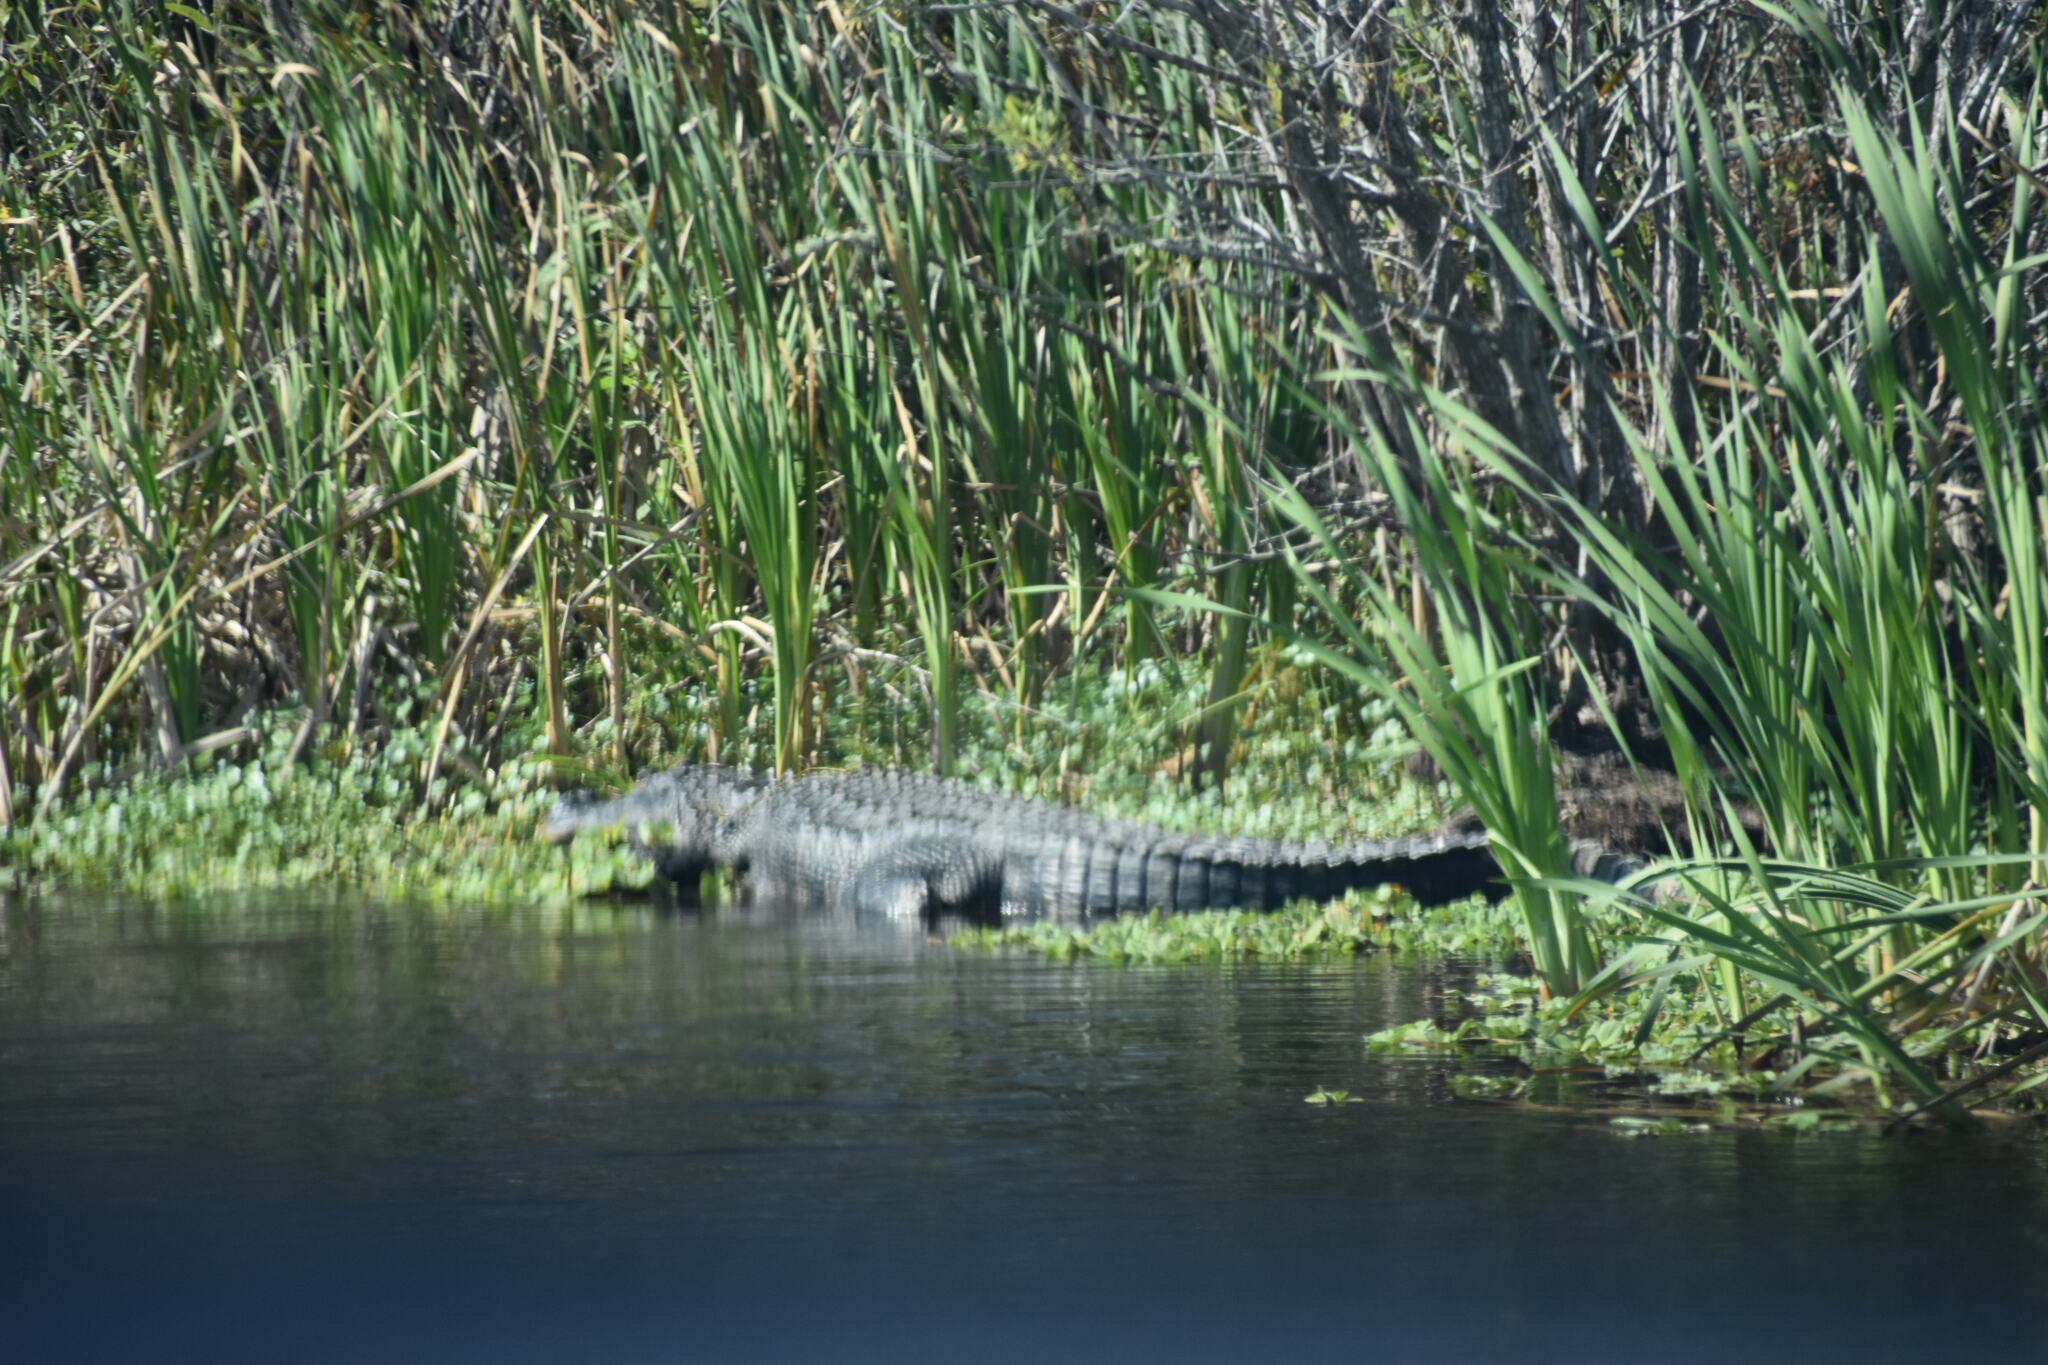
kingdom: Animalia
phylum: Chordata
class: Crocodylia
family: Alligatoridae
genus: Alligator
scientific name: Alligator mississippiensis
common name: American alligator
